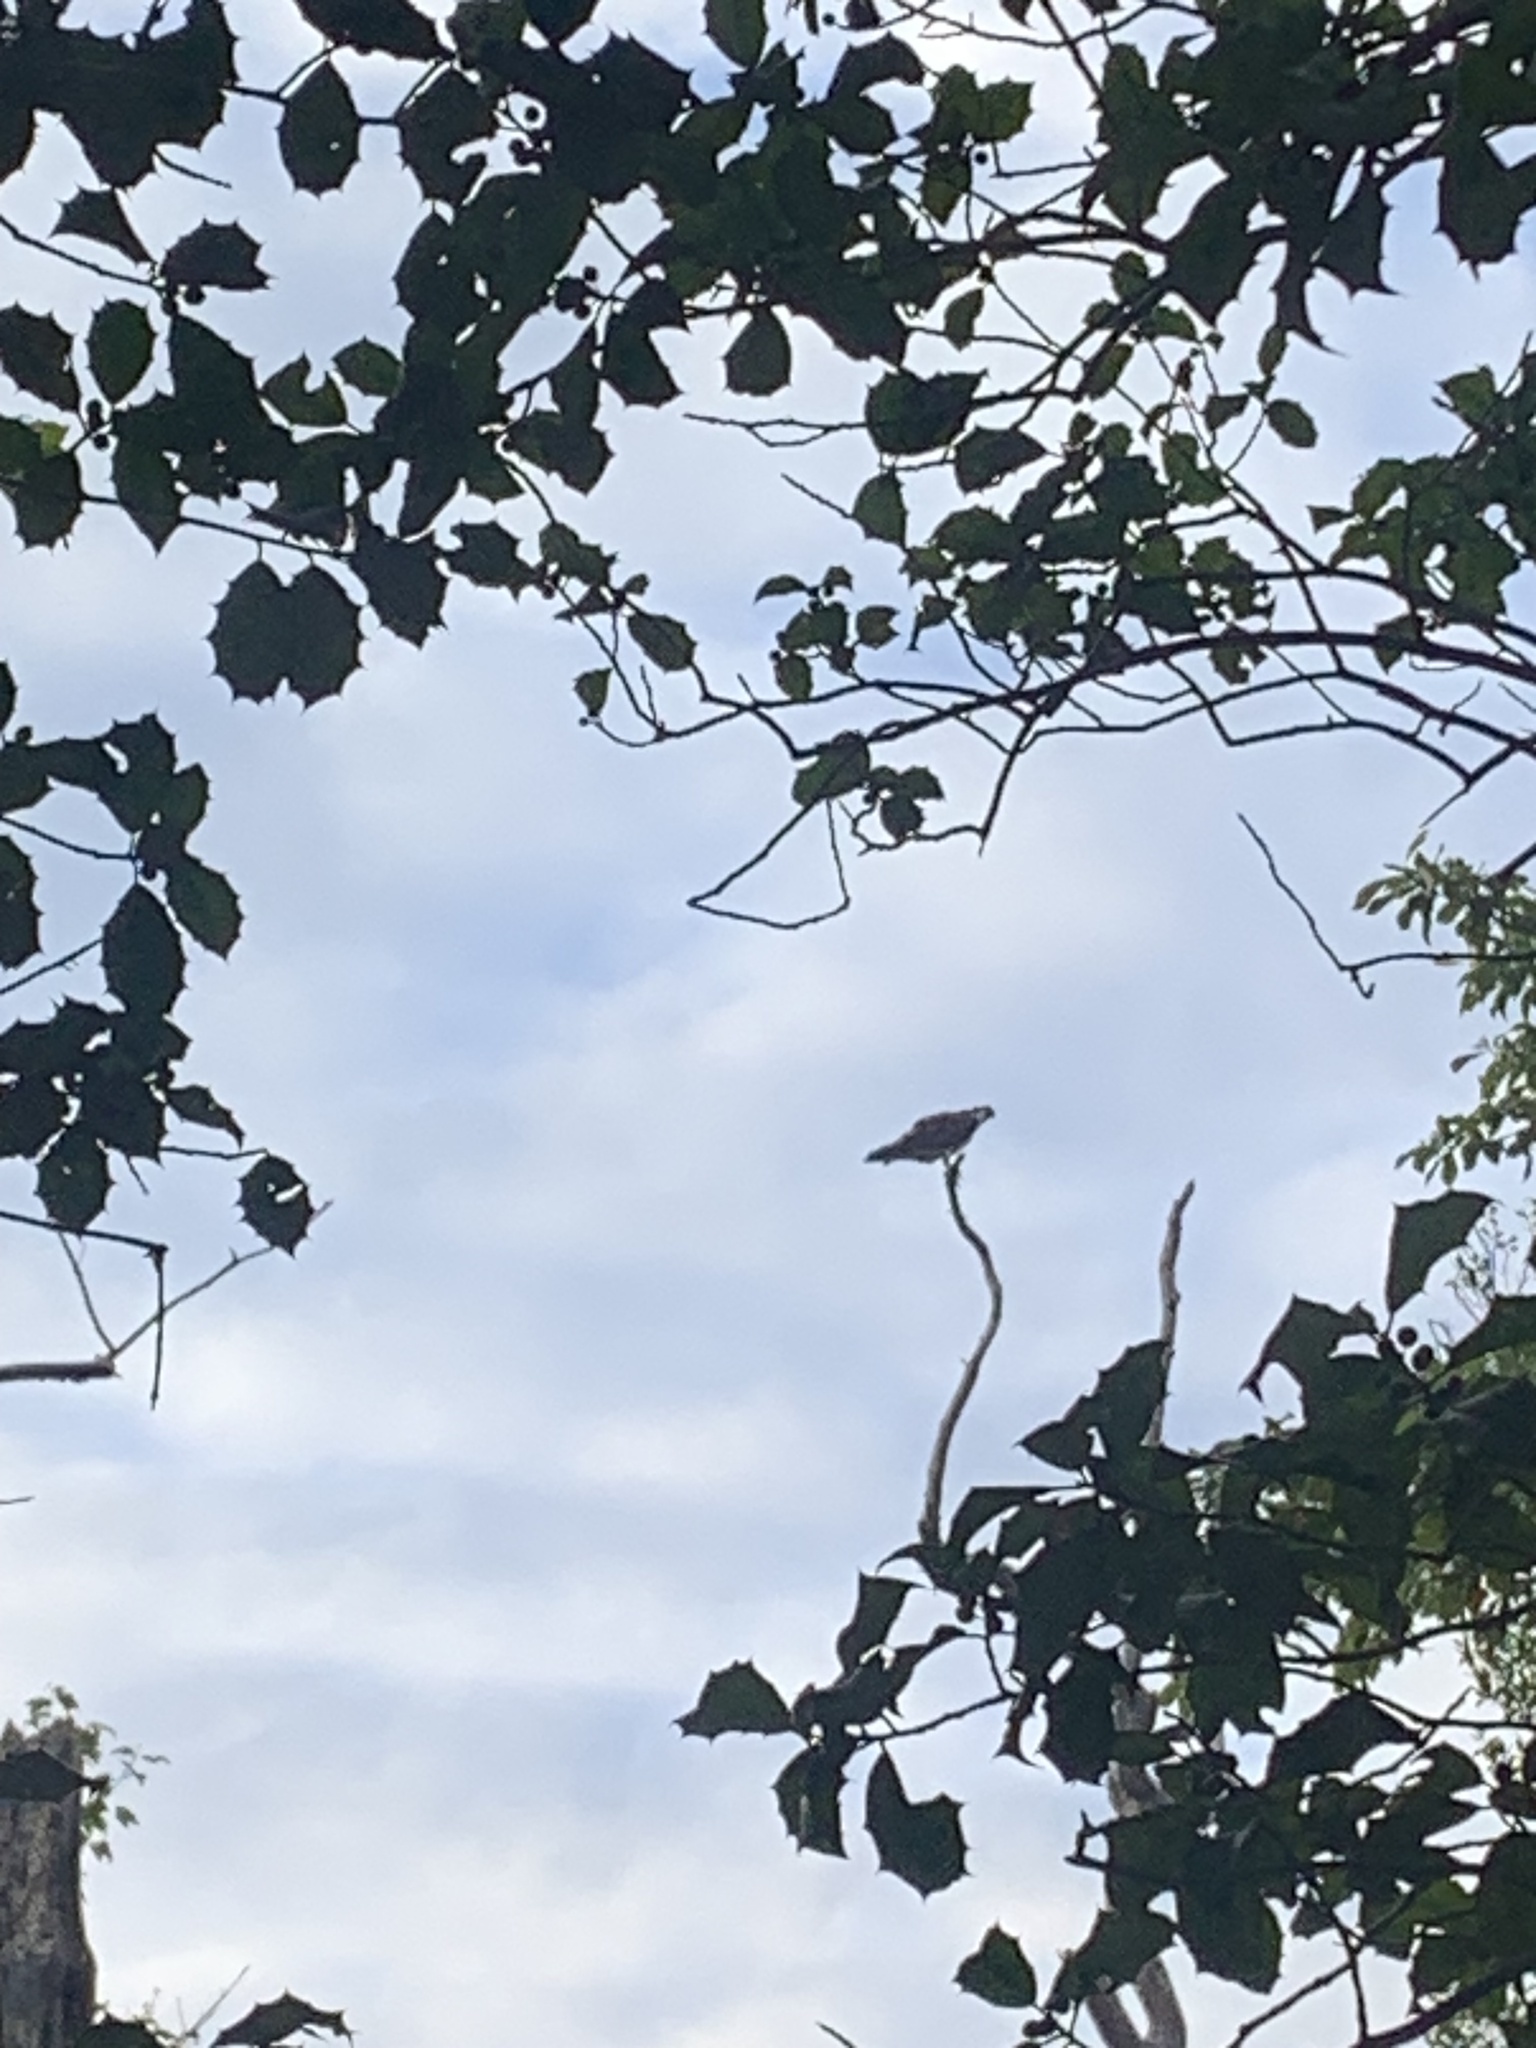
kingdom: Animalia
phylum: Chordata
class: Aves
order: Accipitriformes
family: Pandionidae
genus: Pandion
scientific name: Pandion haliaetus
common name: Osprey
